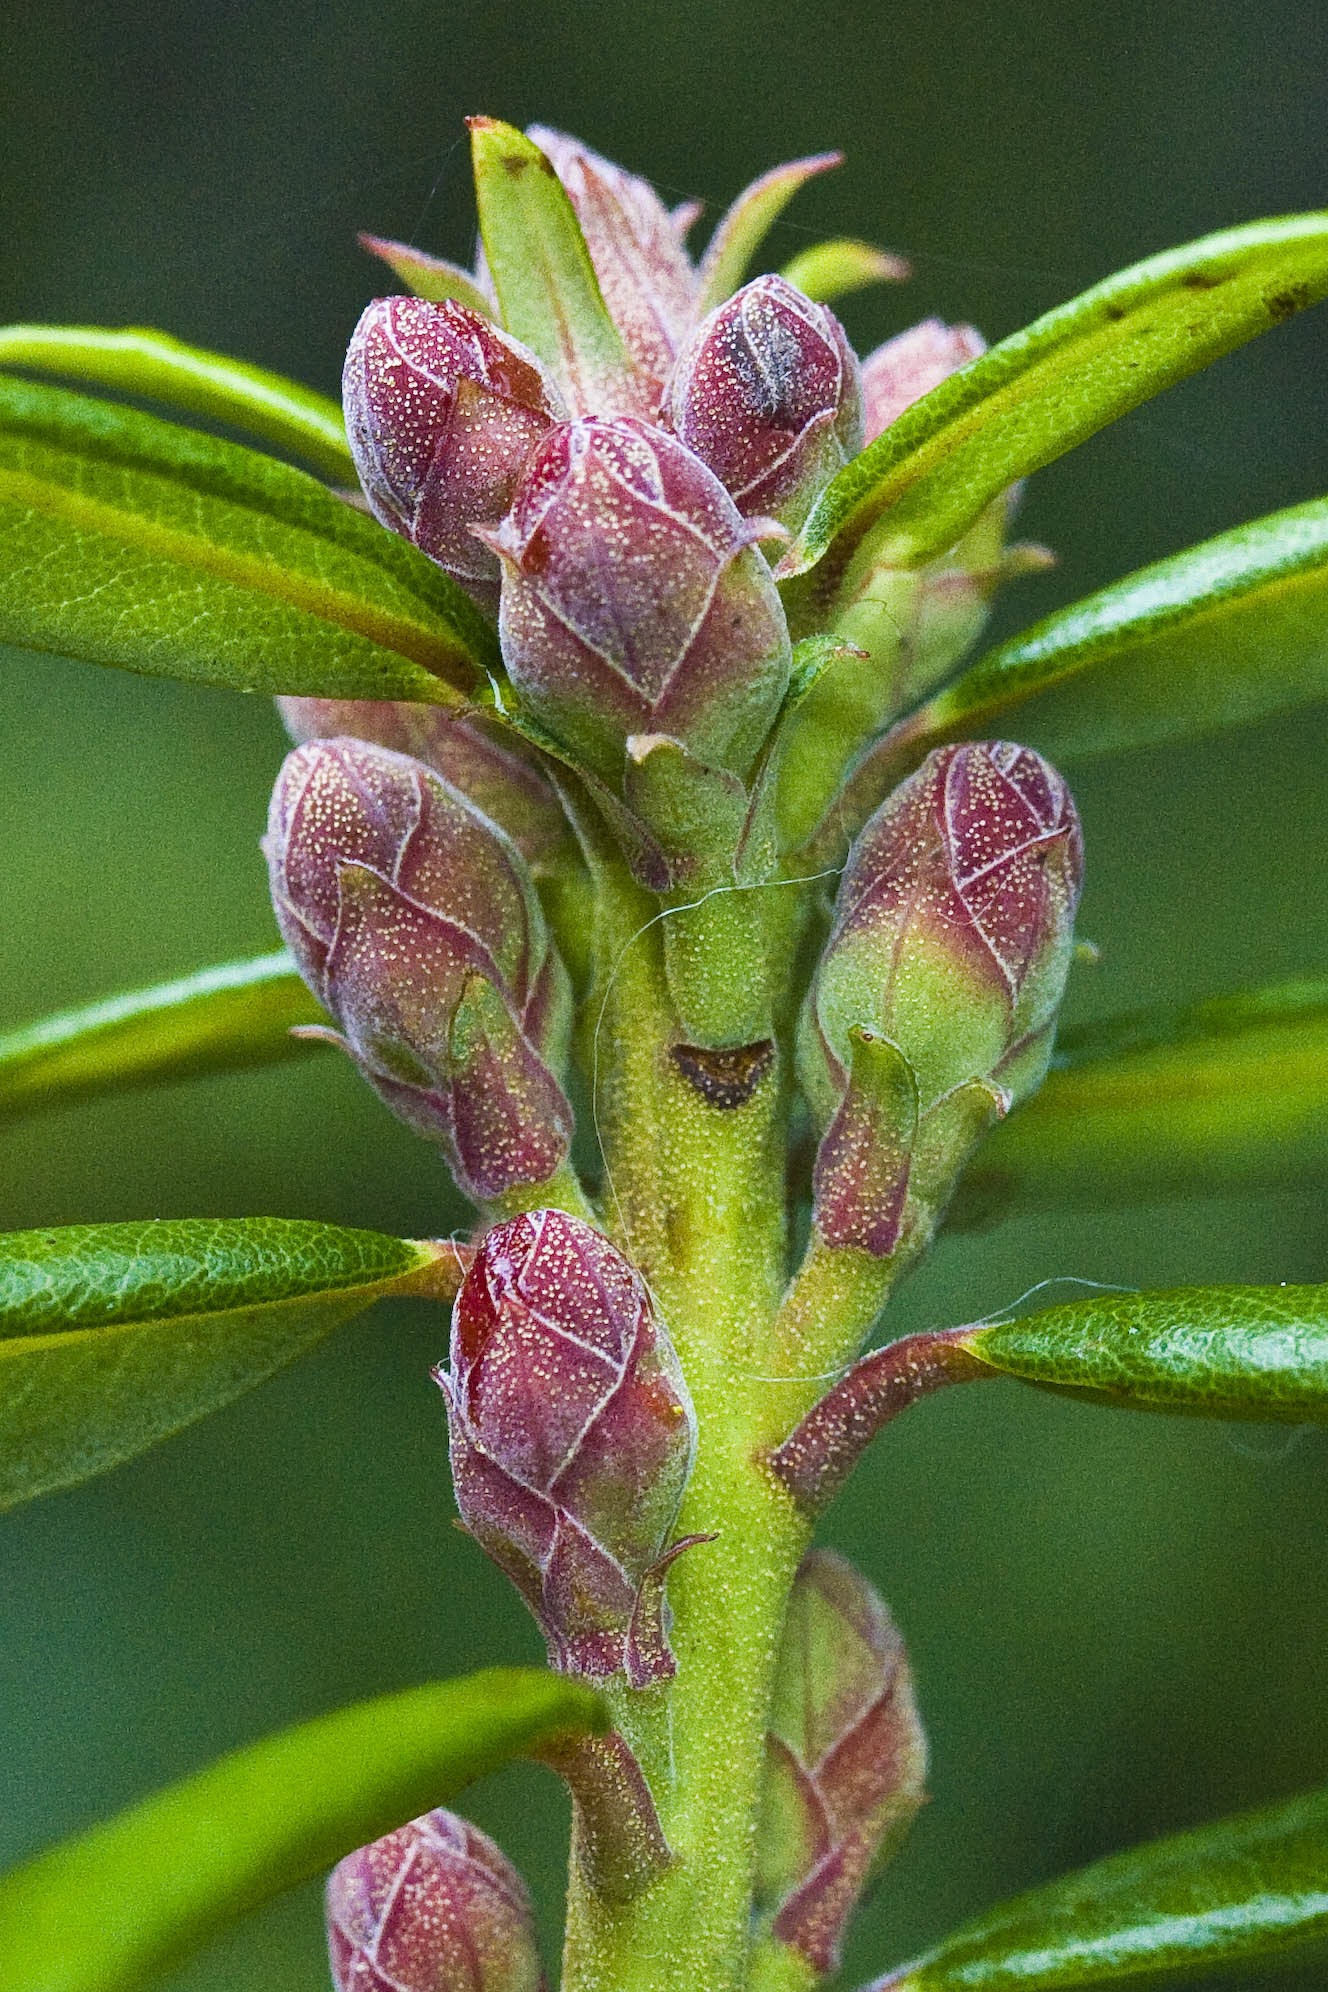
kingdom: Plantae
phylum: Tracheophyta
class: Magnoliopsida
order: Ericales
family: Ericaceae
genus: Rhododendron
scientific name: Rhododendron columbianum
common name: Western labrador tea
